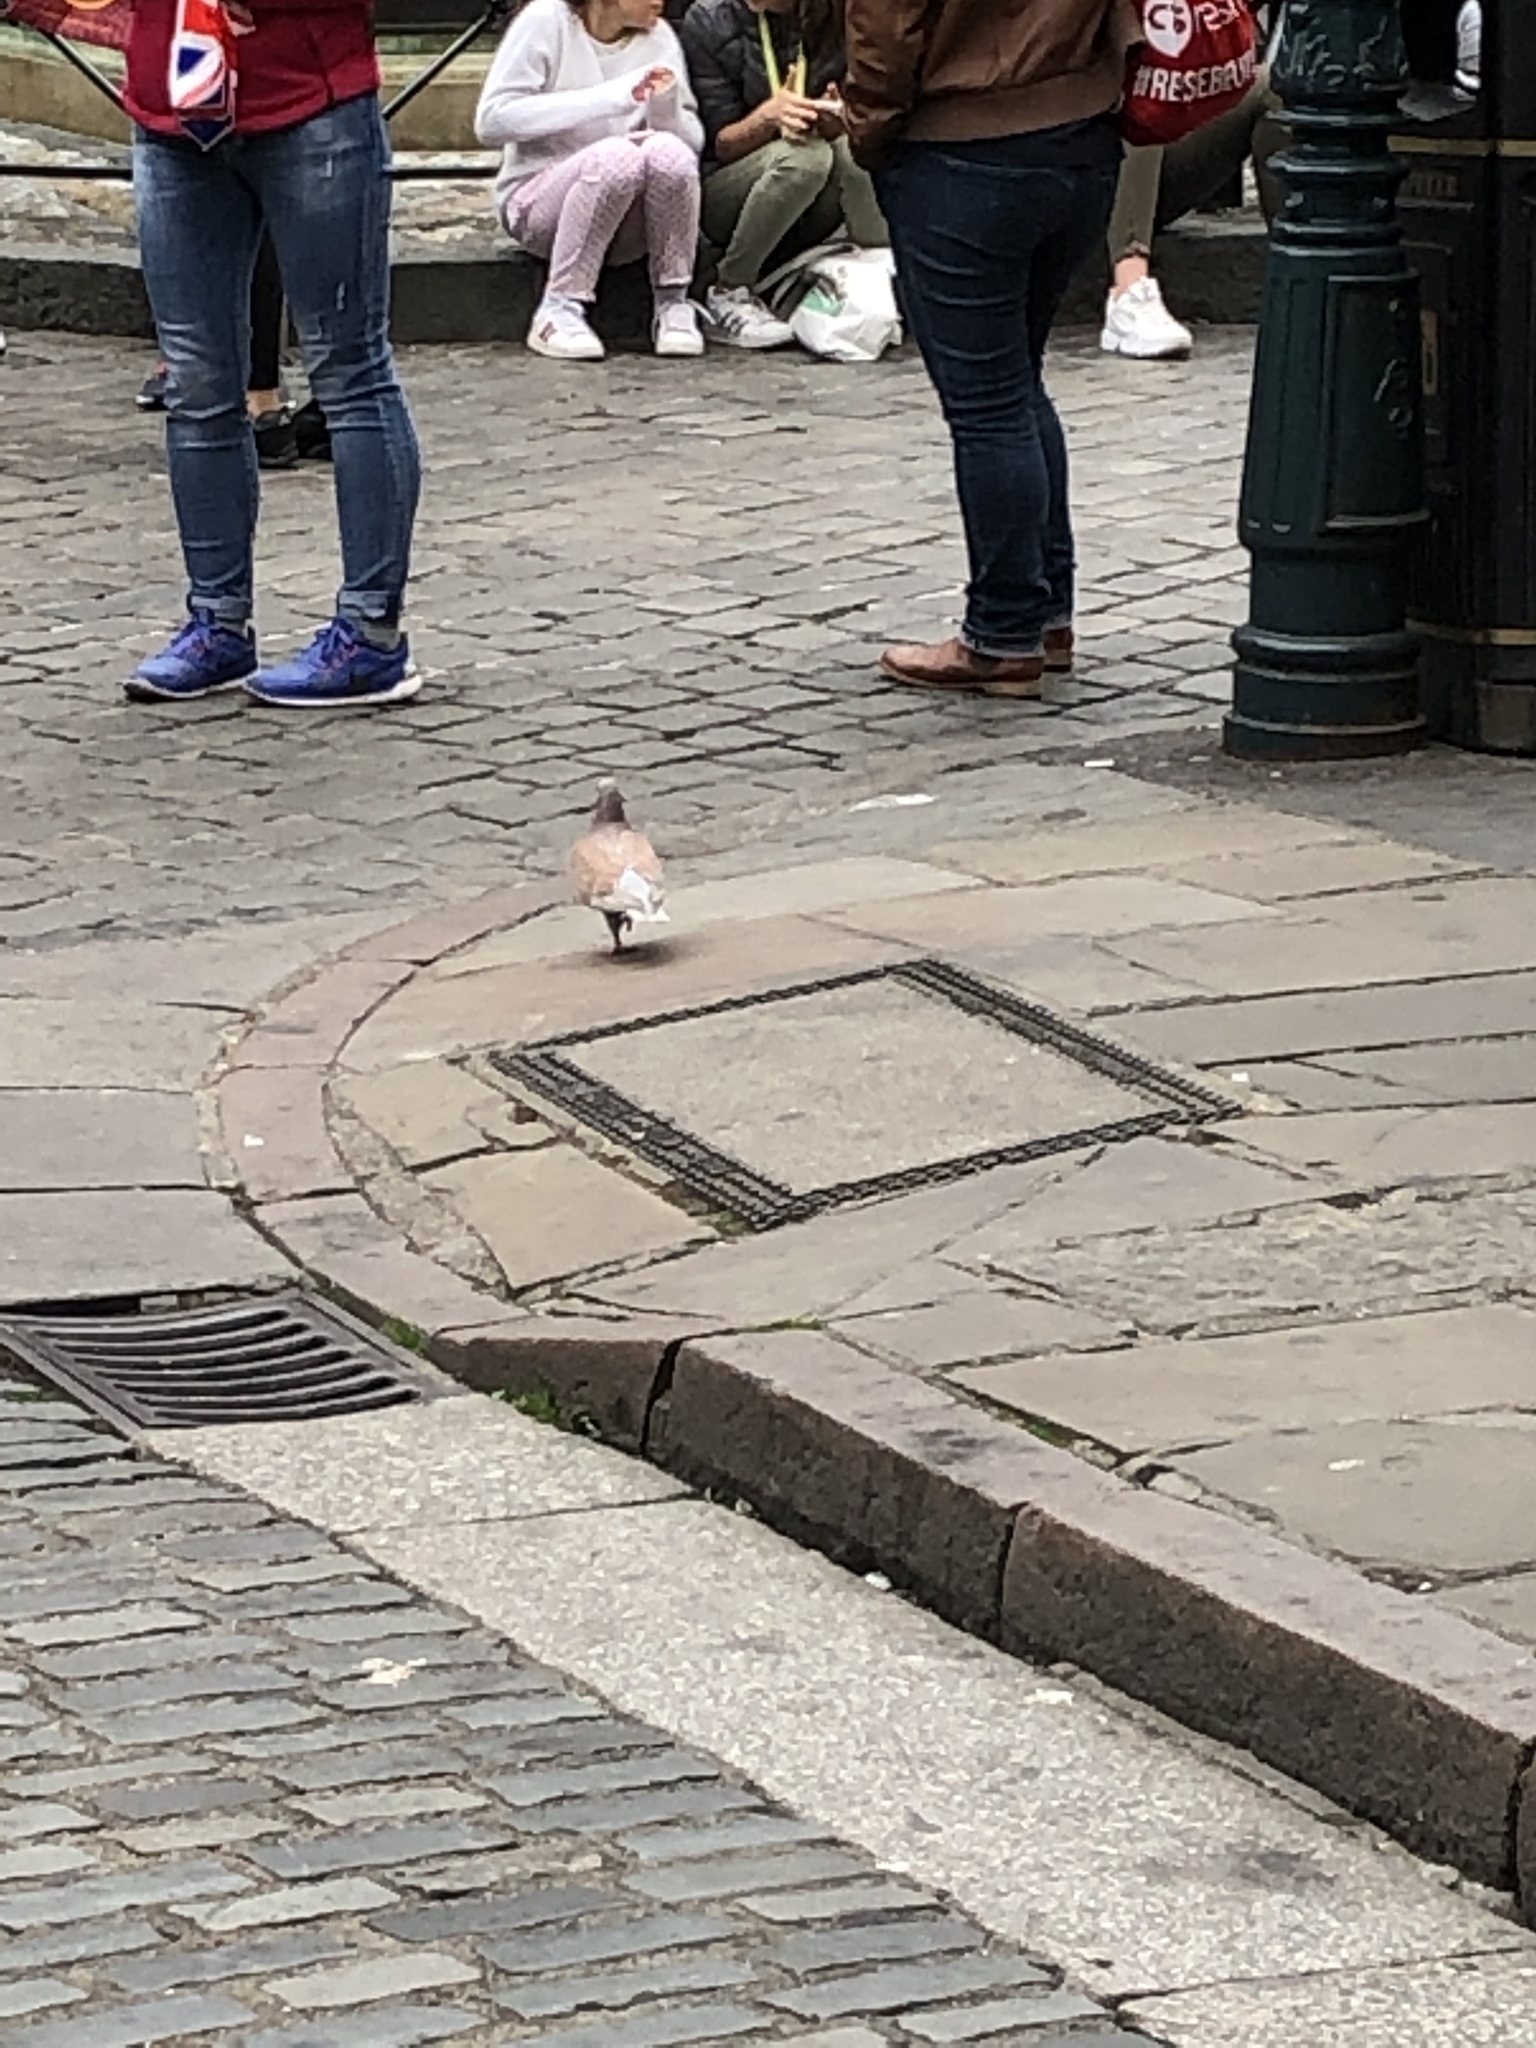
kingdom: Animalia
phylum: Chordata
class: Aves
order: Columbiformes
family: Columbidae
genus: Columba
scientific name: Columba livia
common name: Rock pigeon
